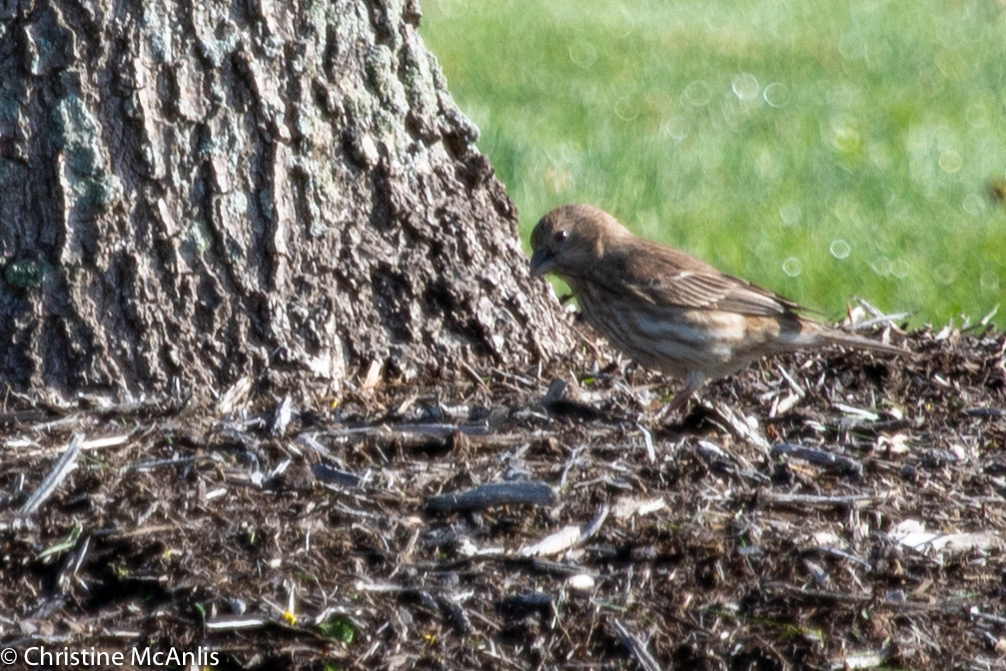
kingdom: Animalia
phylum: Chordata
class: Aves
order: Passeriformes
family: Fringillidae
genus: Haemorhous
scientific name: Haemorhous mexicanus
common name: House finch
